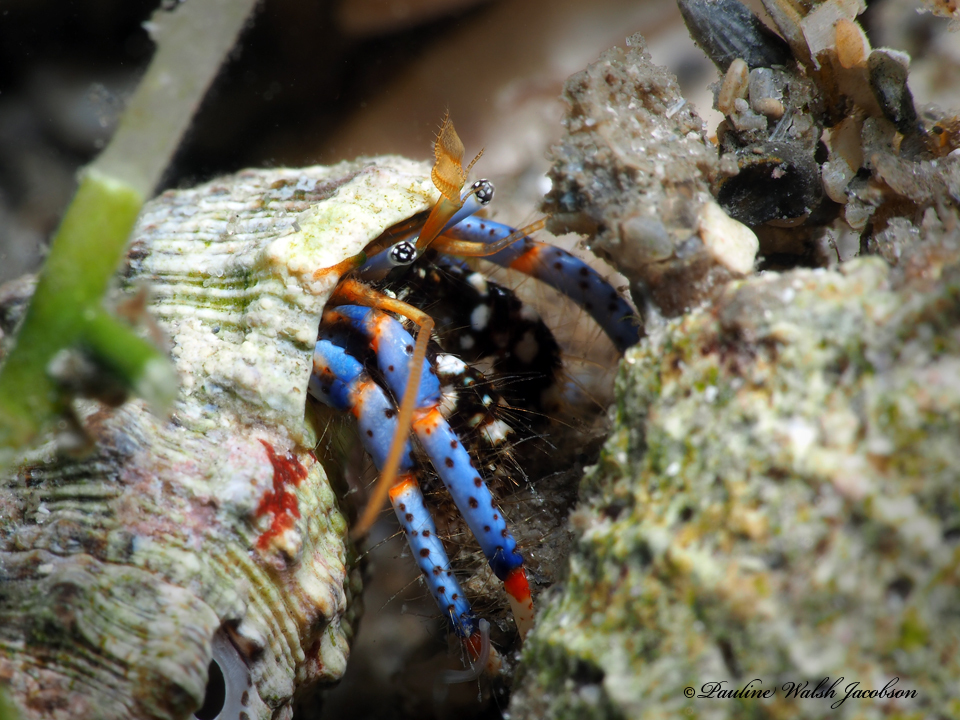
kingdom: Animalia
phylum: Arthropoda
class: Malacostraca
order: Decapoda
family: Diogenidae
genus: Clibanarius
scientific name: Clibanarius tricolor
